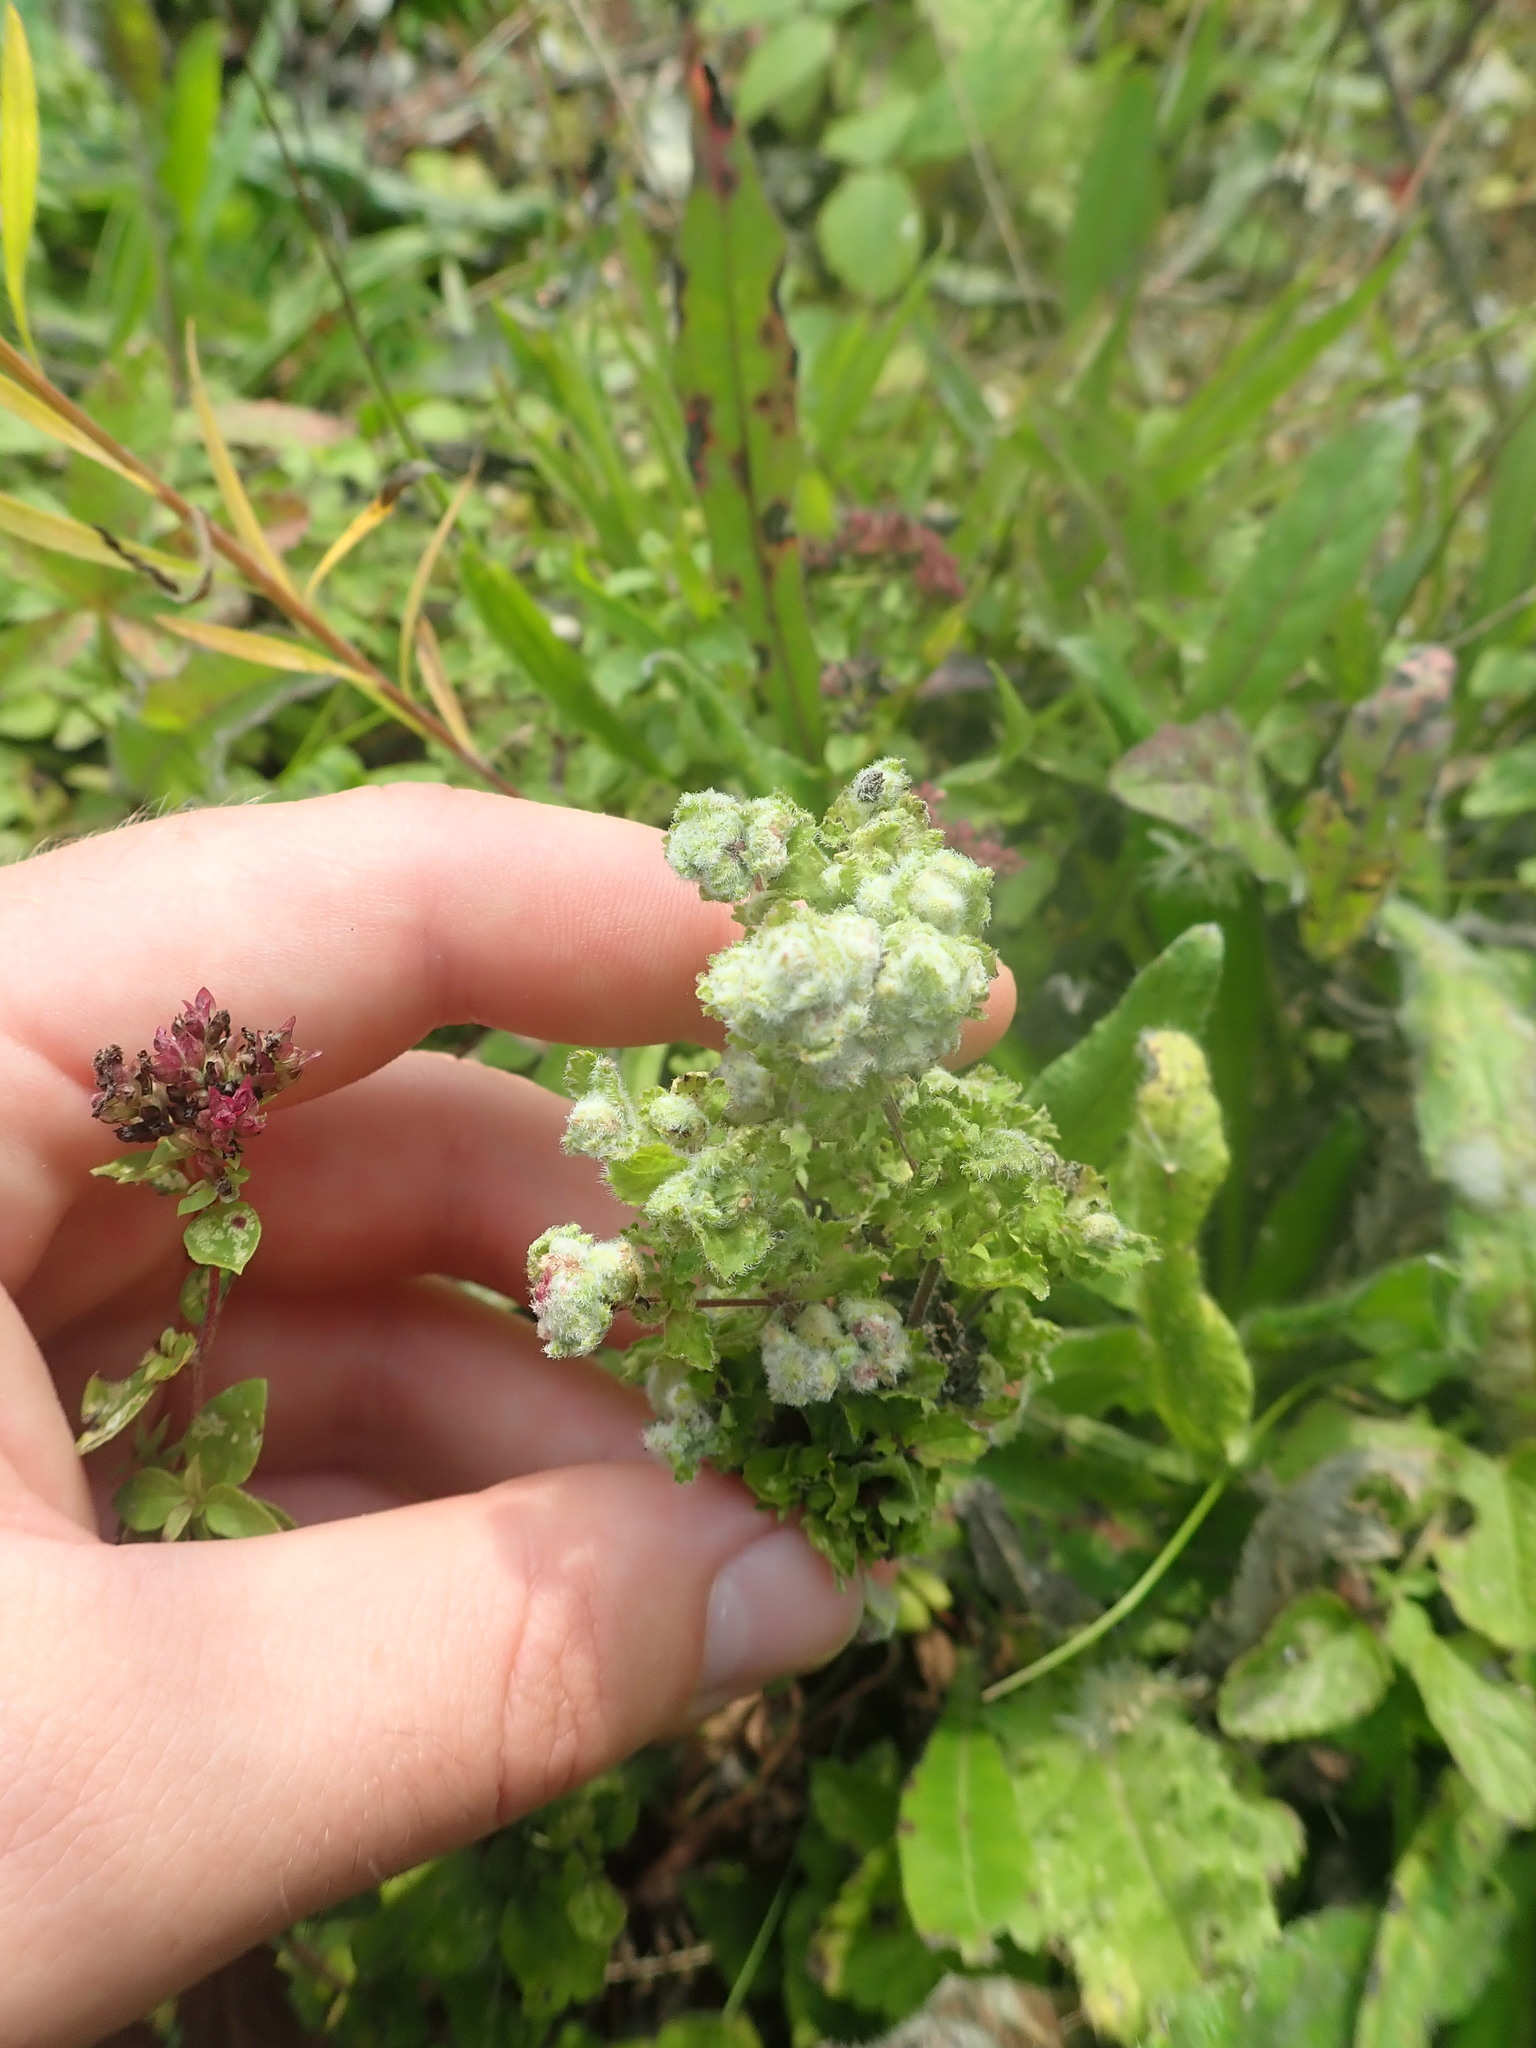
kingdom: Animalia
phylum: Arthropoda
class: Arachnida
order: Trombidiformes
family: Eriophyidae
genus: Aceria
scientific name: Aceria labiatiflorae
